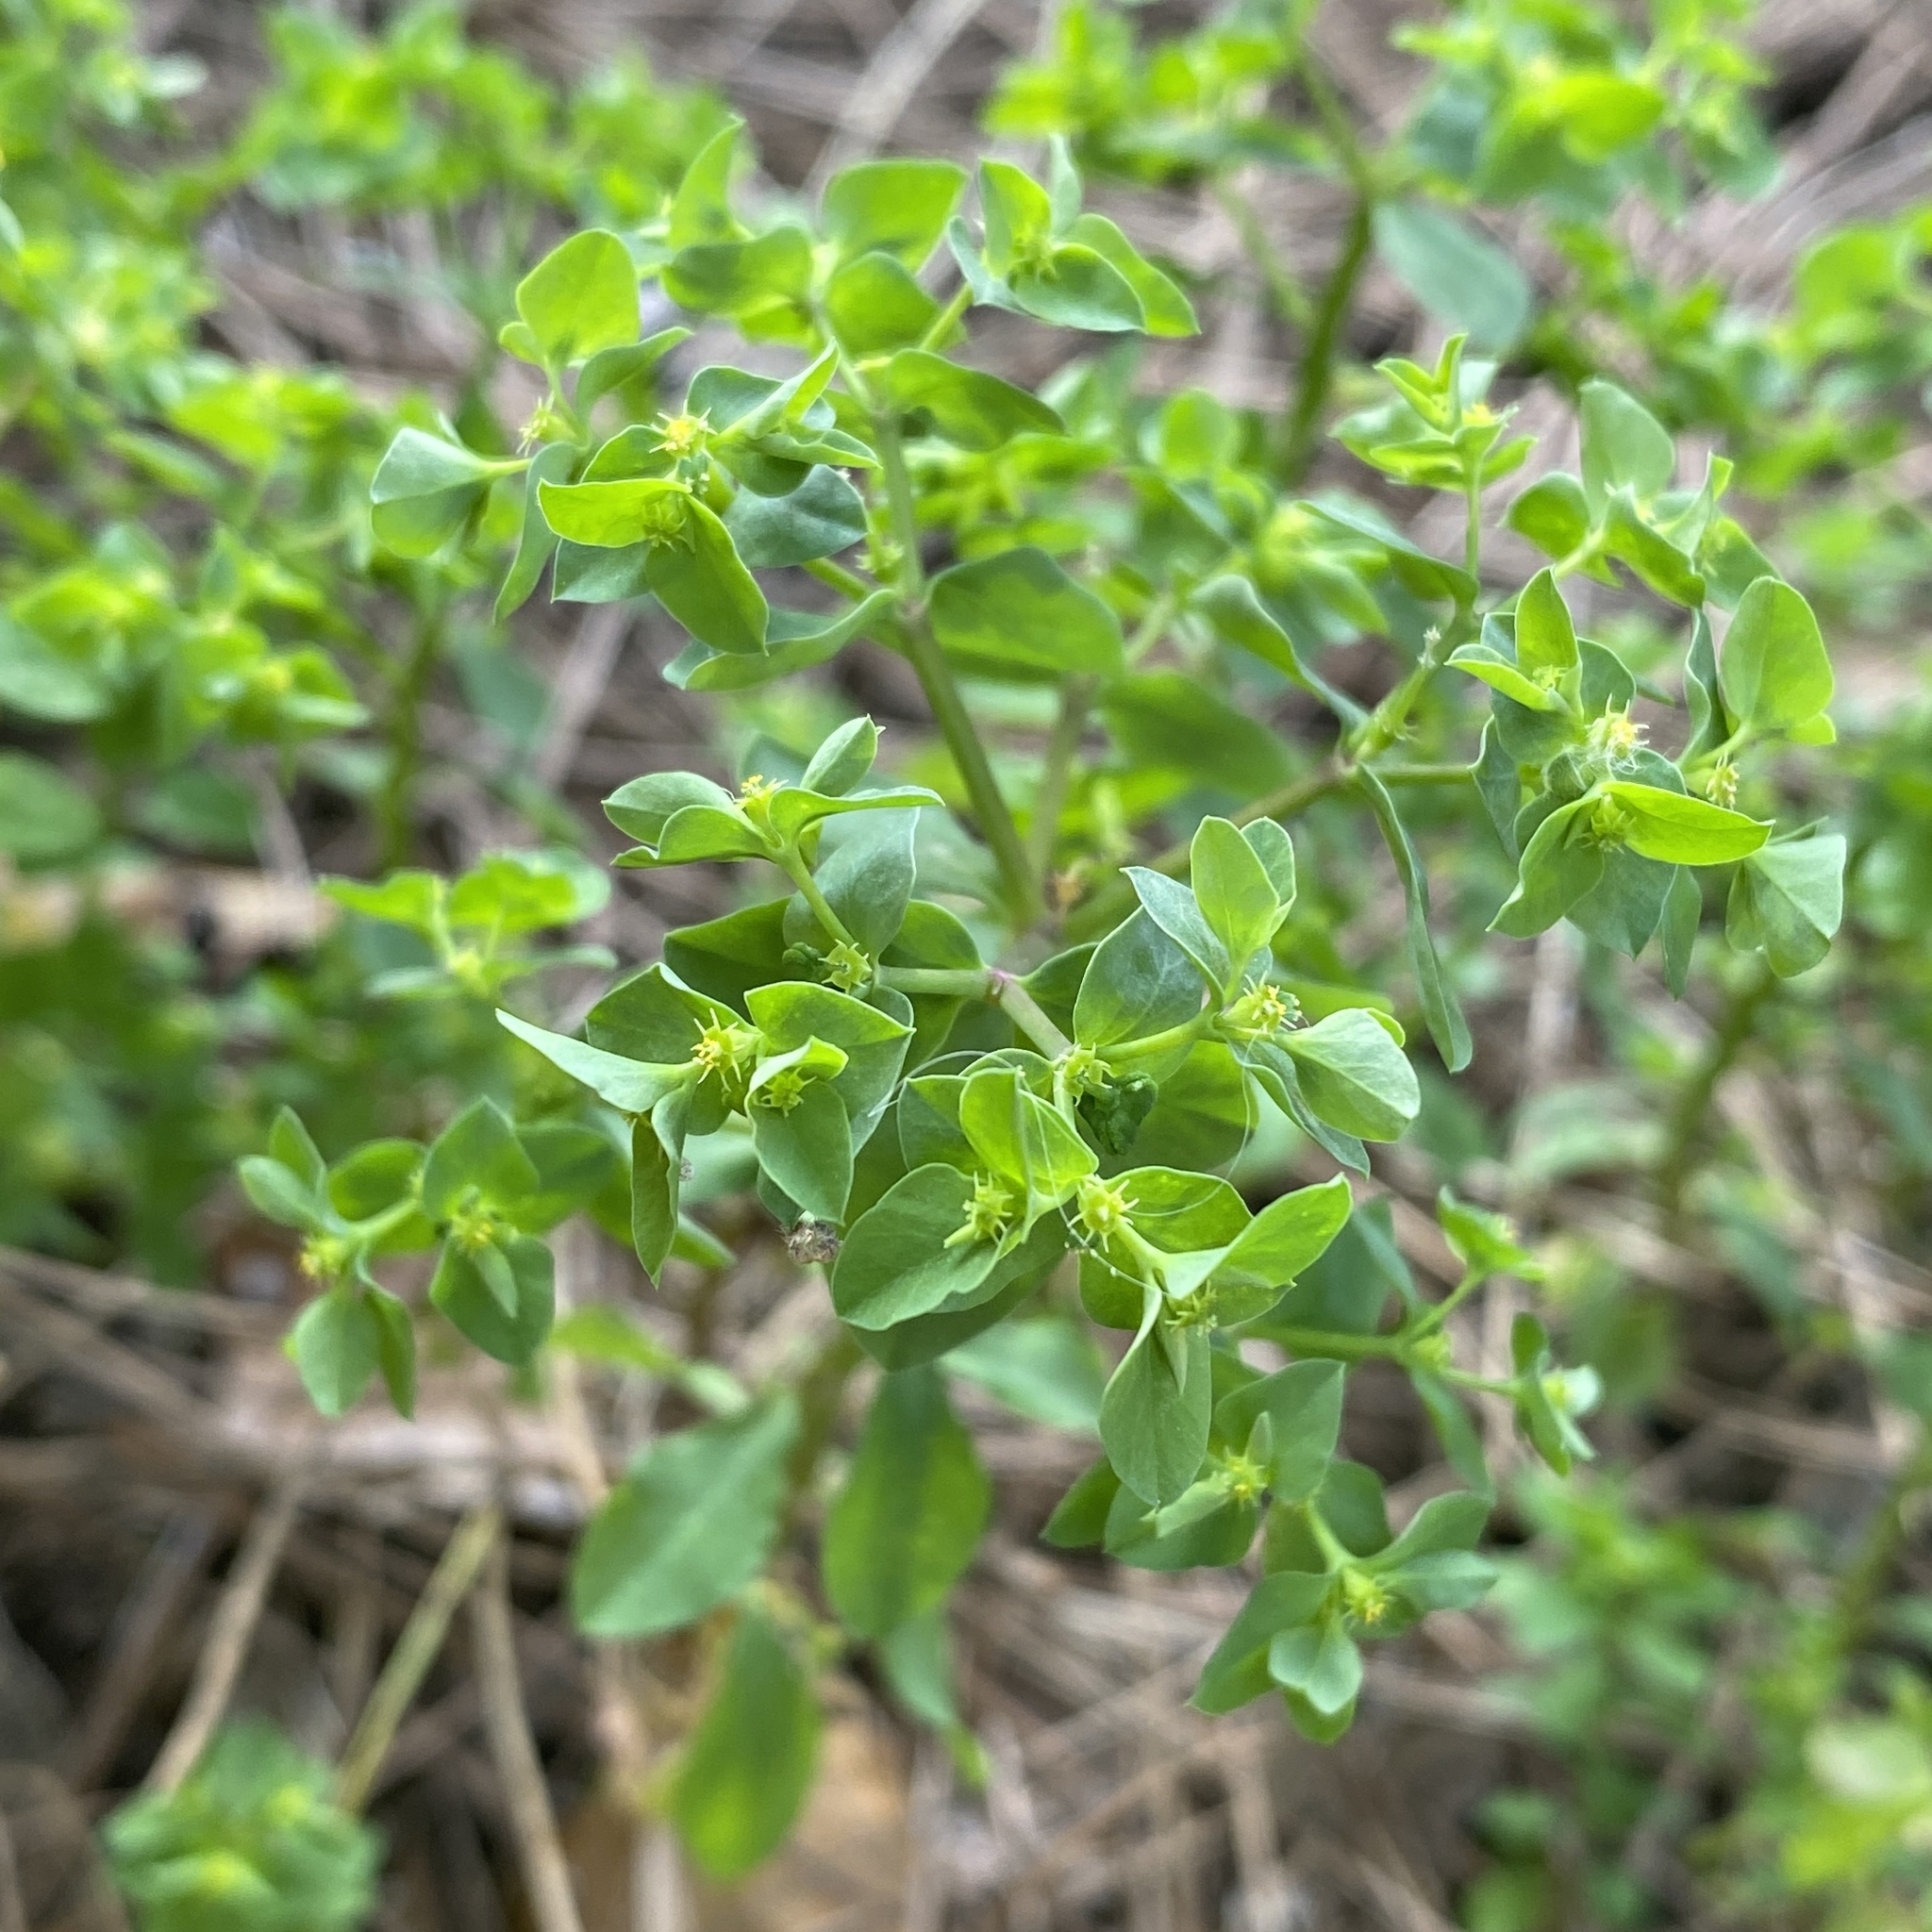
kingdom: Plantae
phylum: Tracheophyta
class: Magnoliopsida
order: Malpighiales
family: Euphorbiaceae
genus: Euphorbia
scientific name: Euphorbia peplus
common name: Petty spurge
